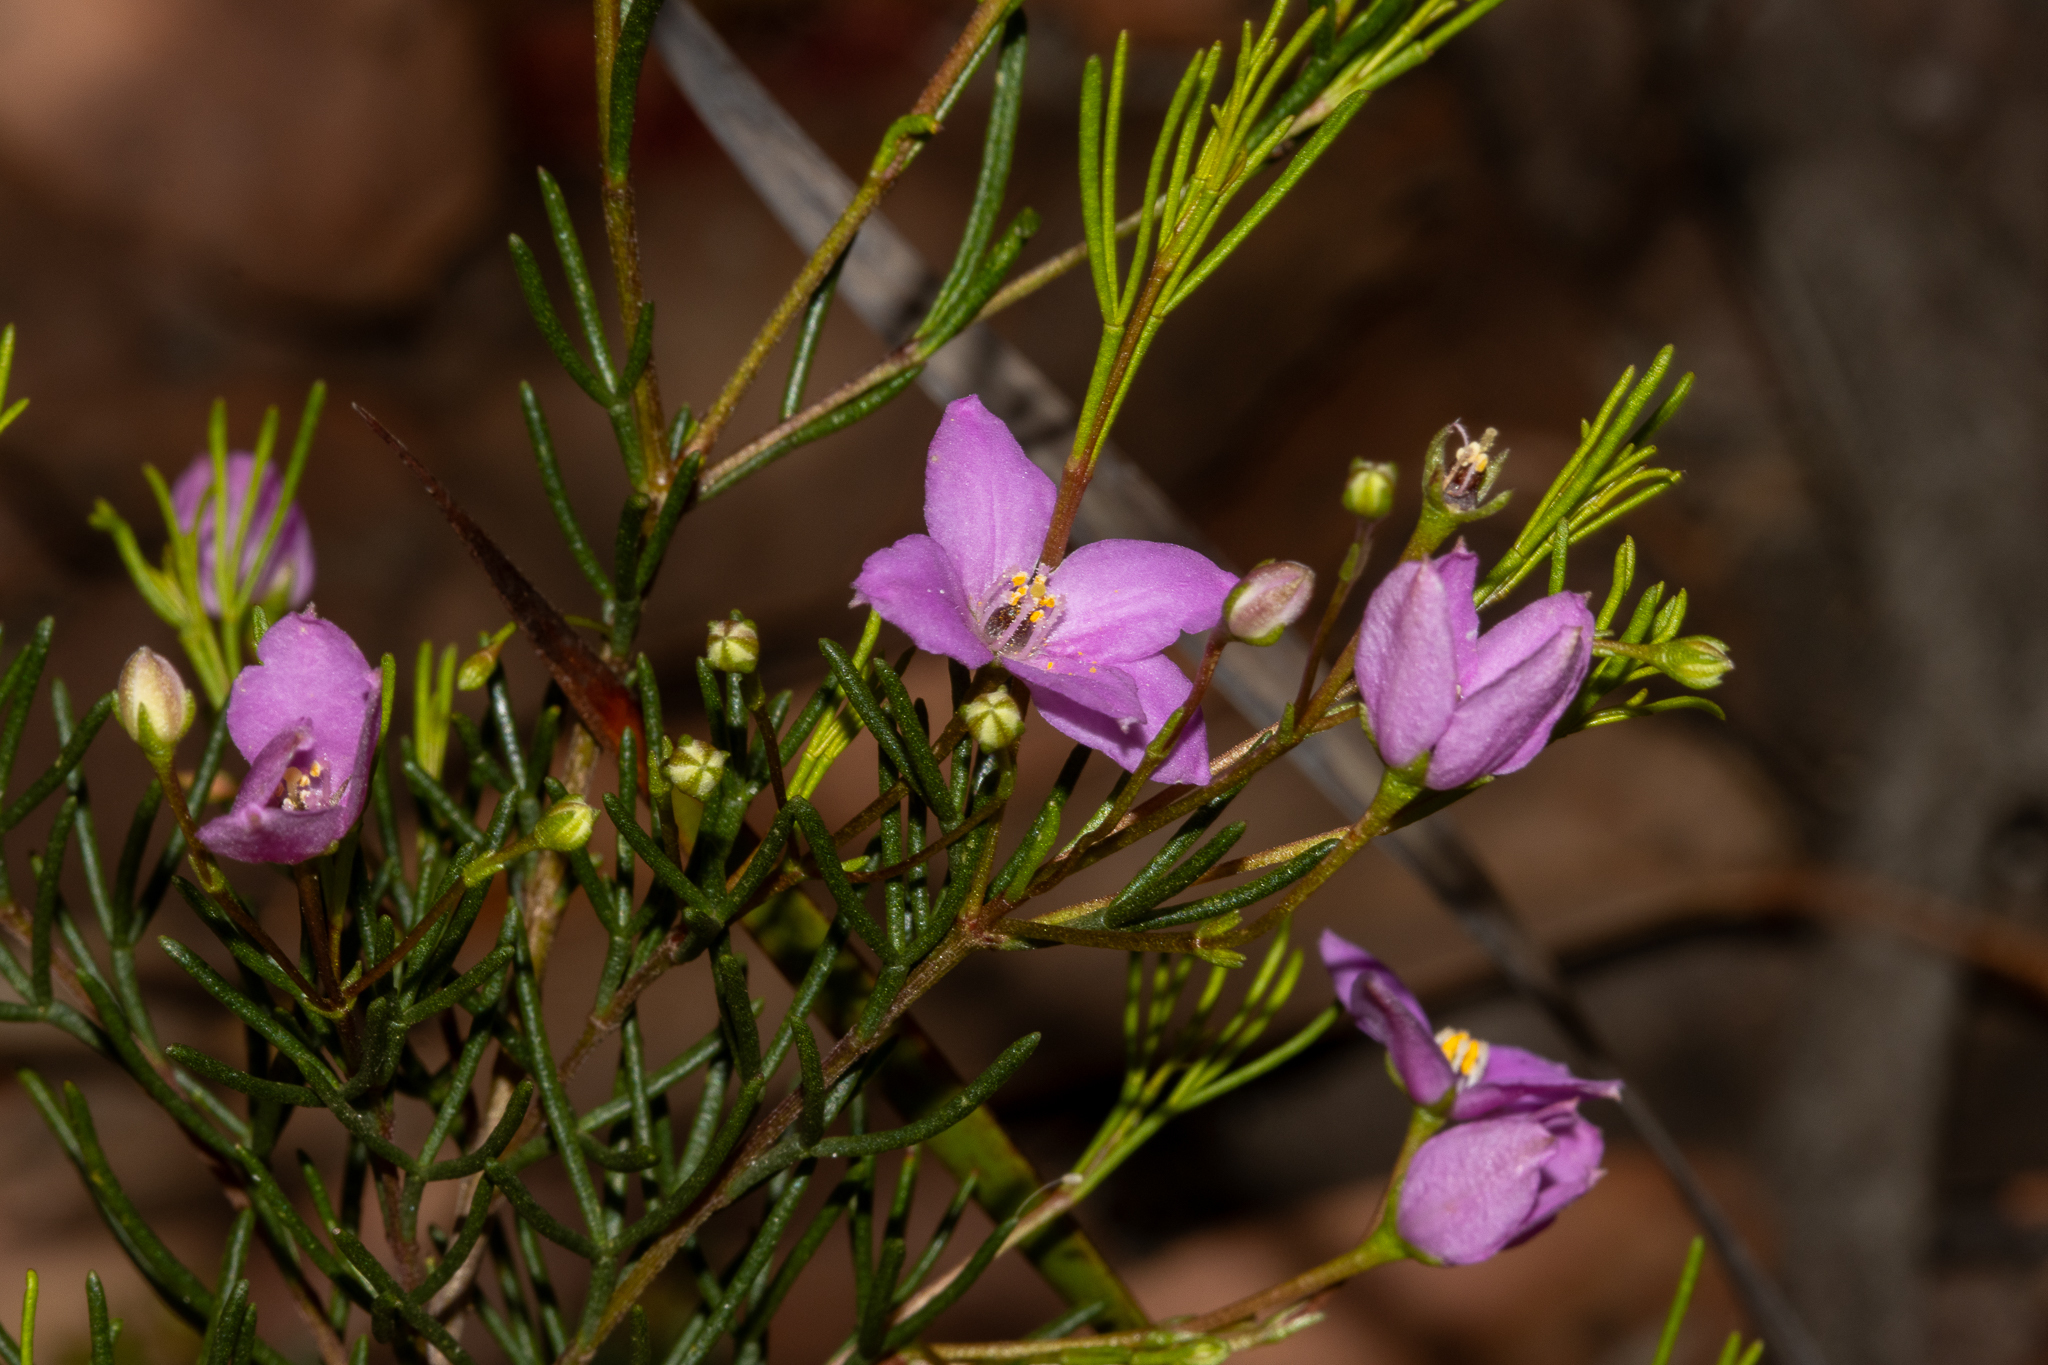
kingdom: Plantae
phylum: Tracheophyta
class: Magnoliopsida
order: Sapindales
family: Rutaceae
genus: Boronia
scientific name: Boronia filifolia
